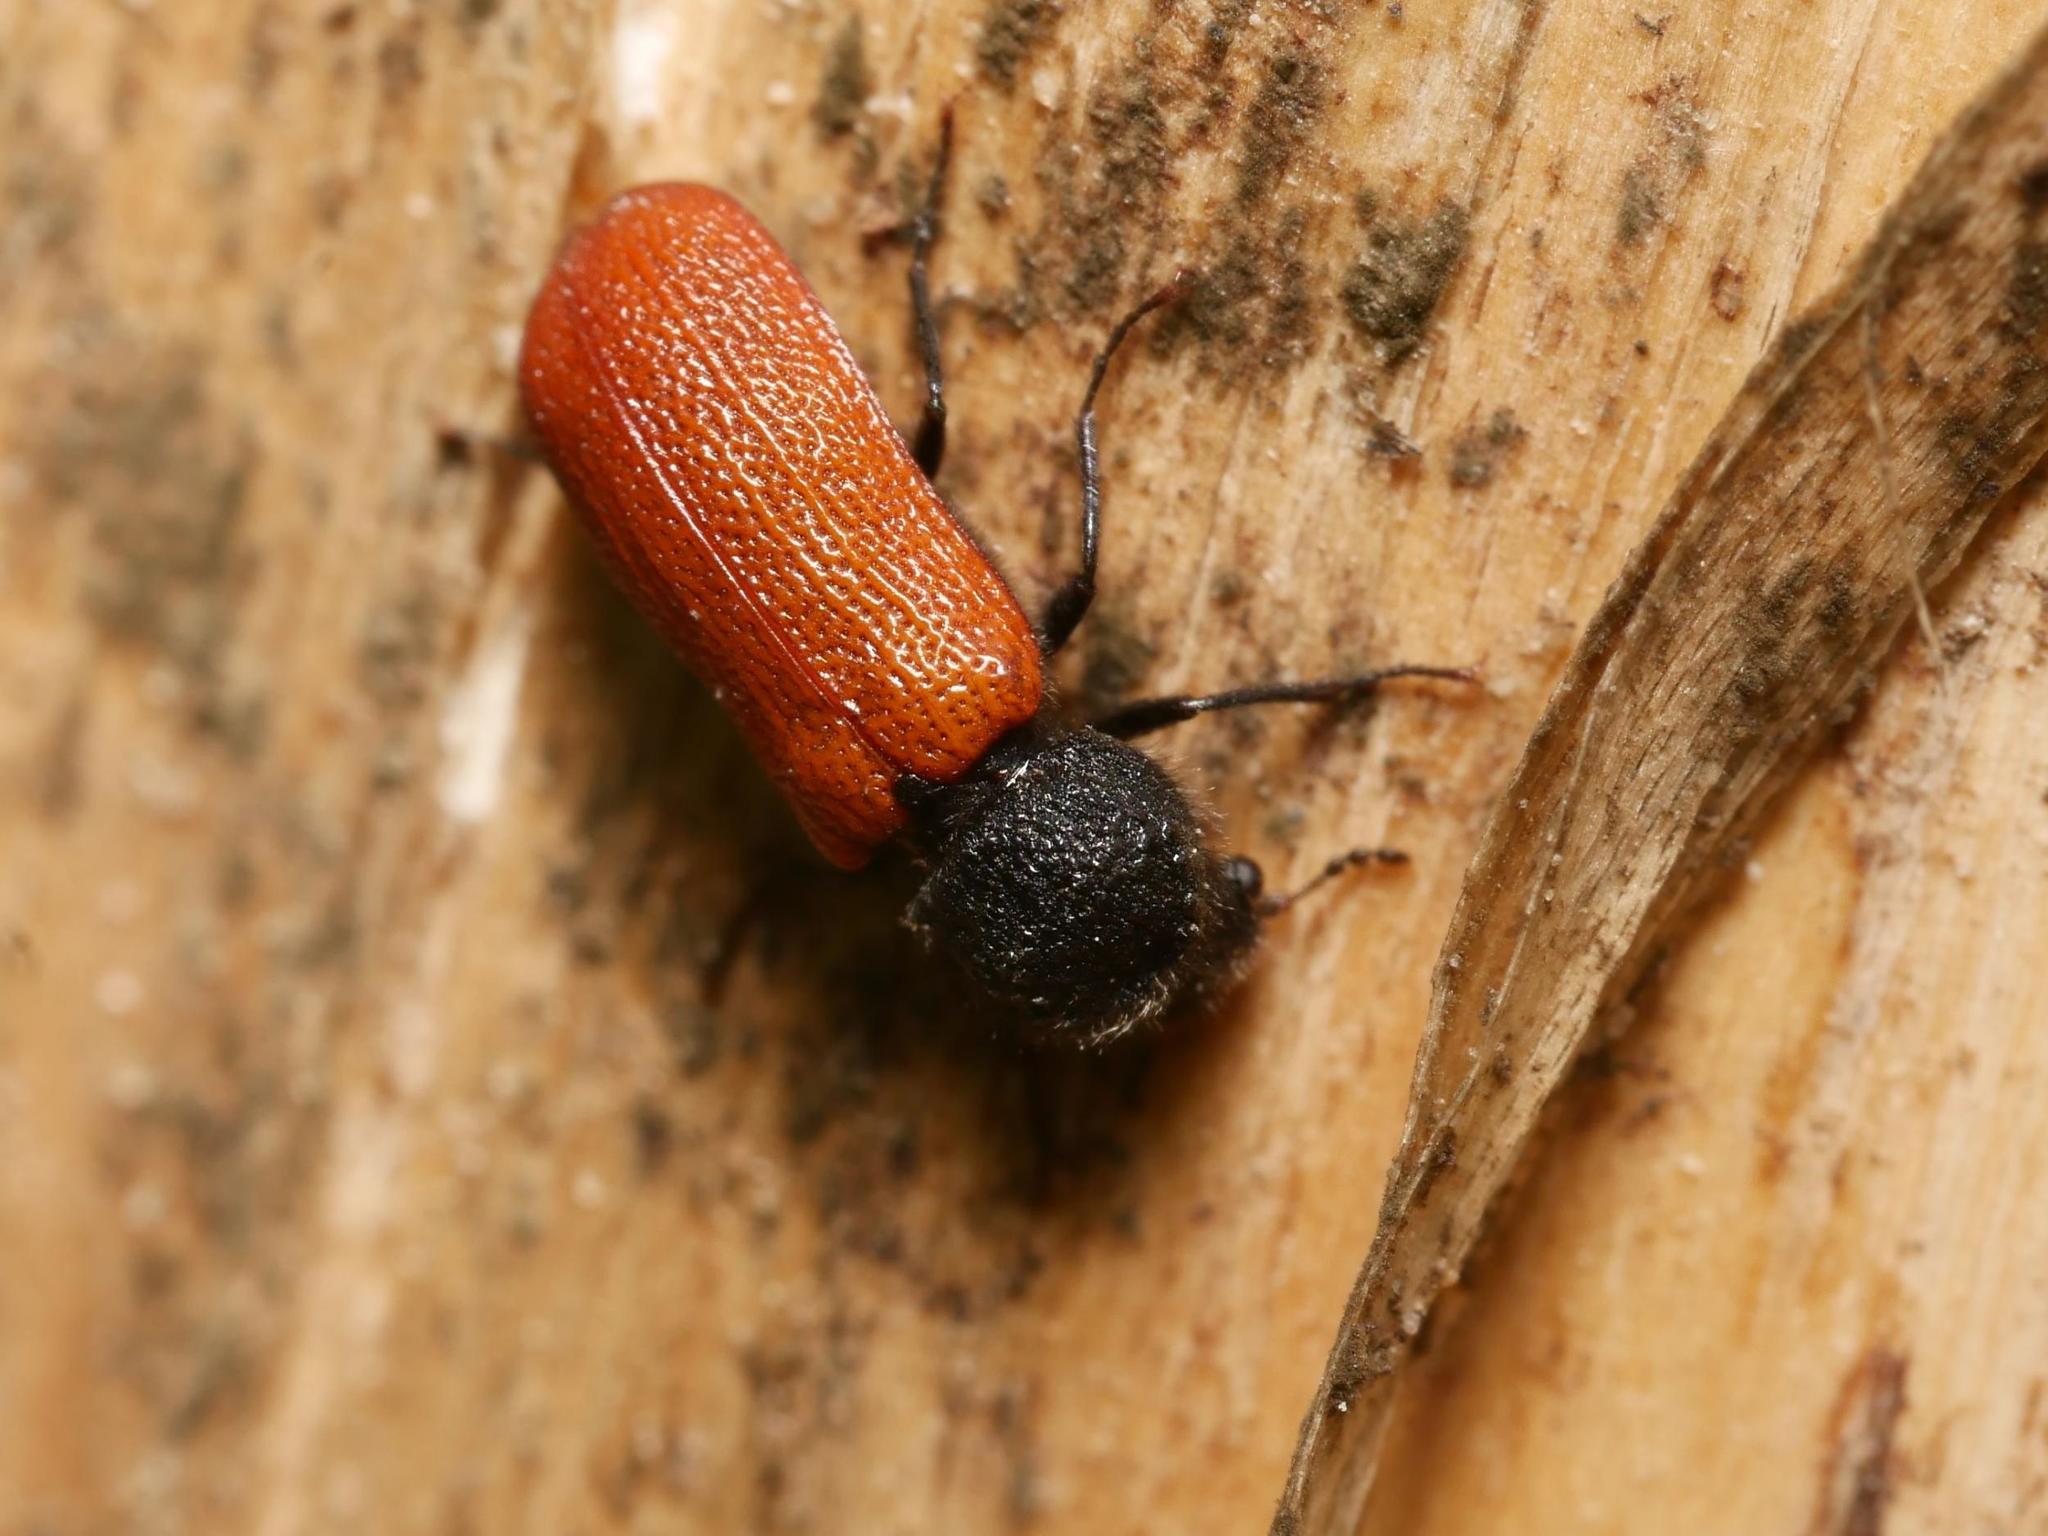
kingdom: Animalia
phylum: Arthropoda
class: Insecta
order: Coleoptera
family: Bostrichidae
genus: Bostrichus
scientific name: Bostrichus capucinus
